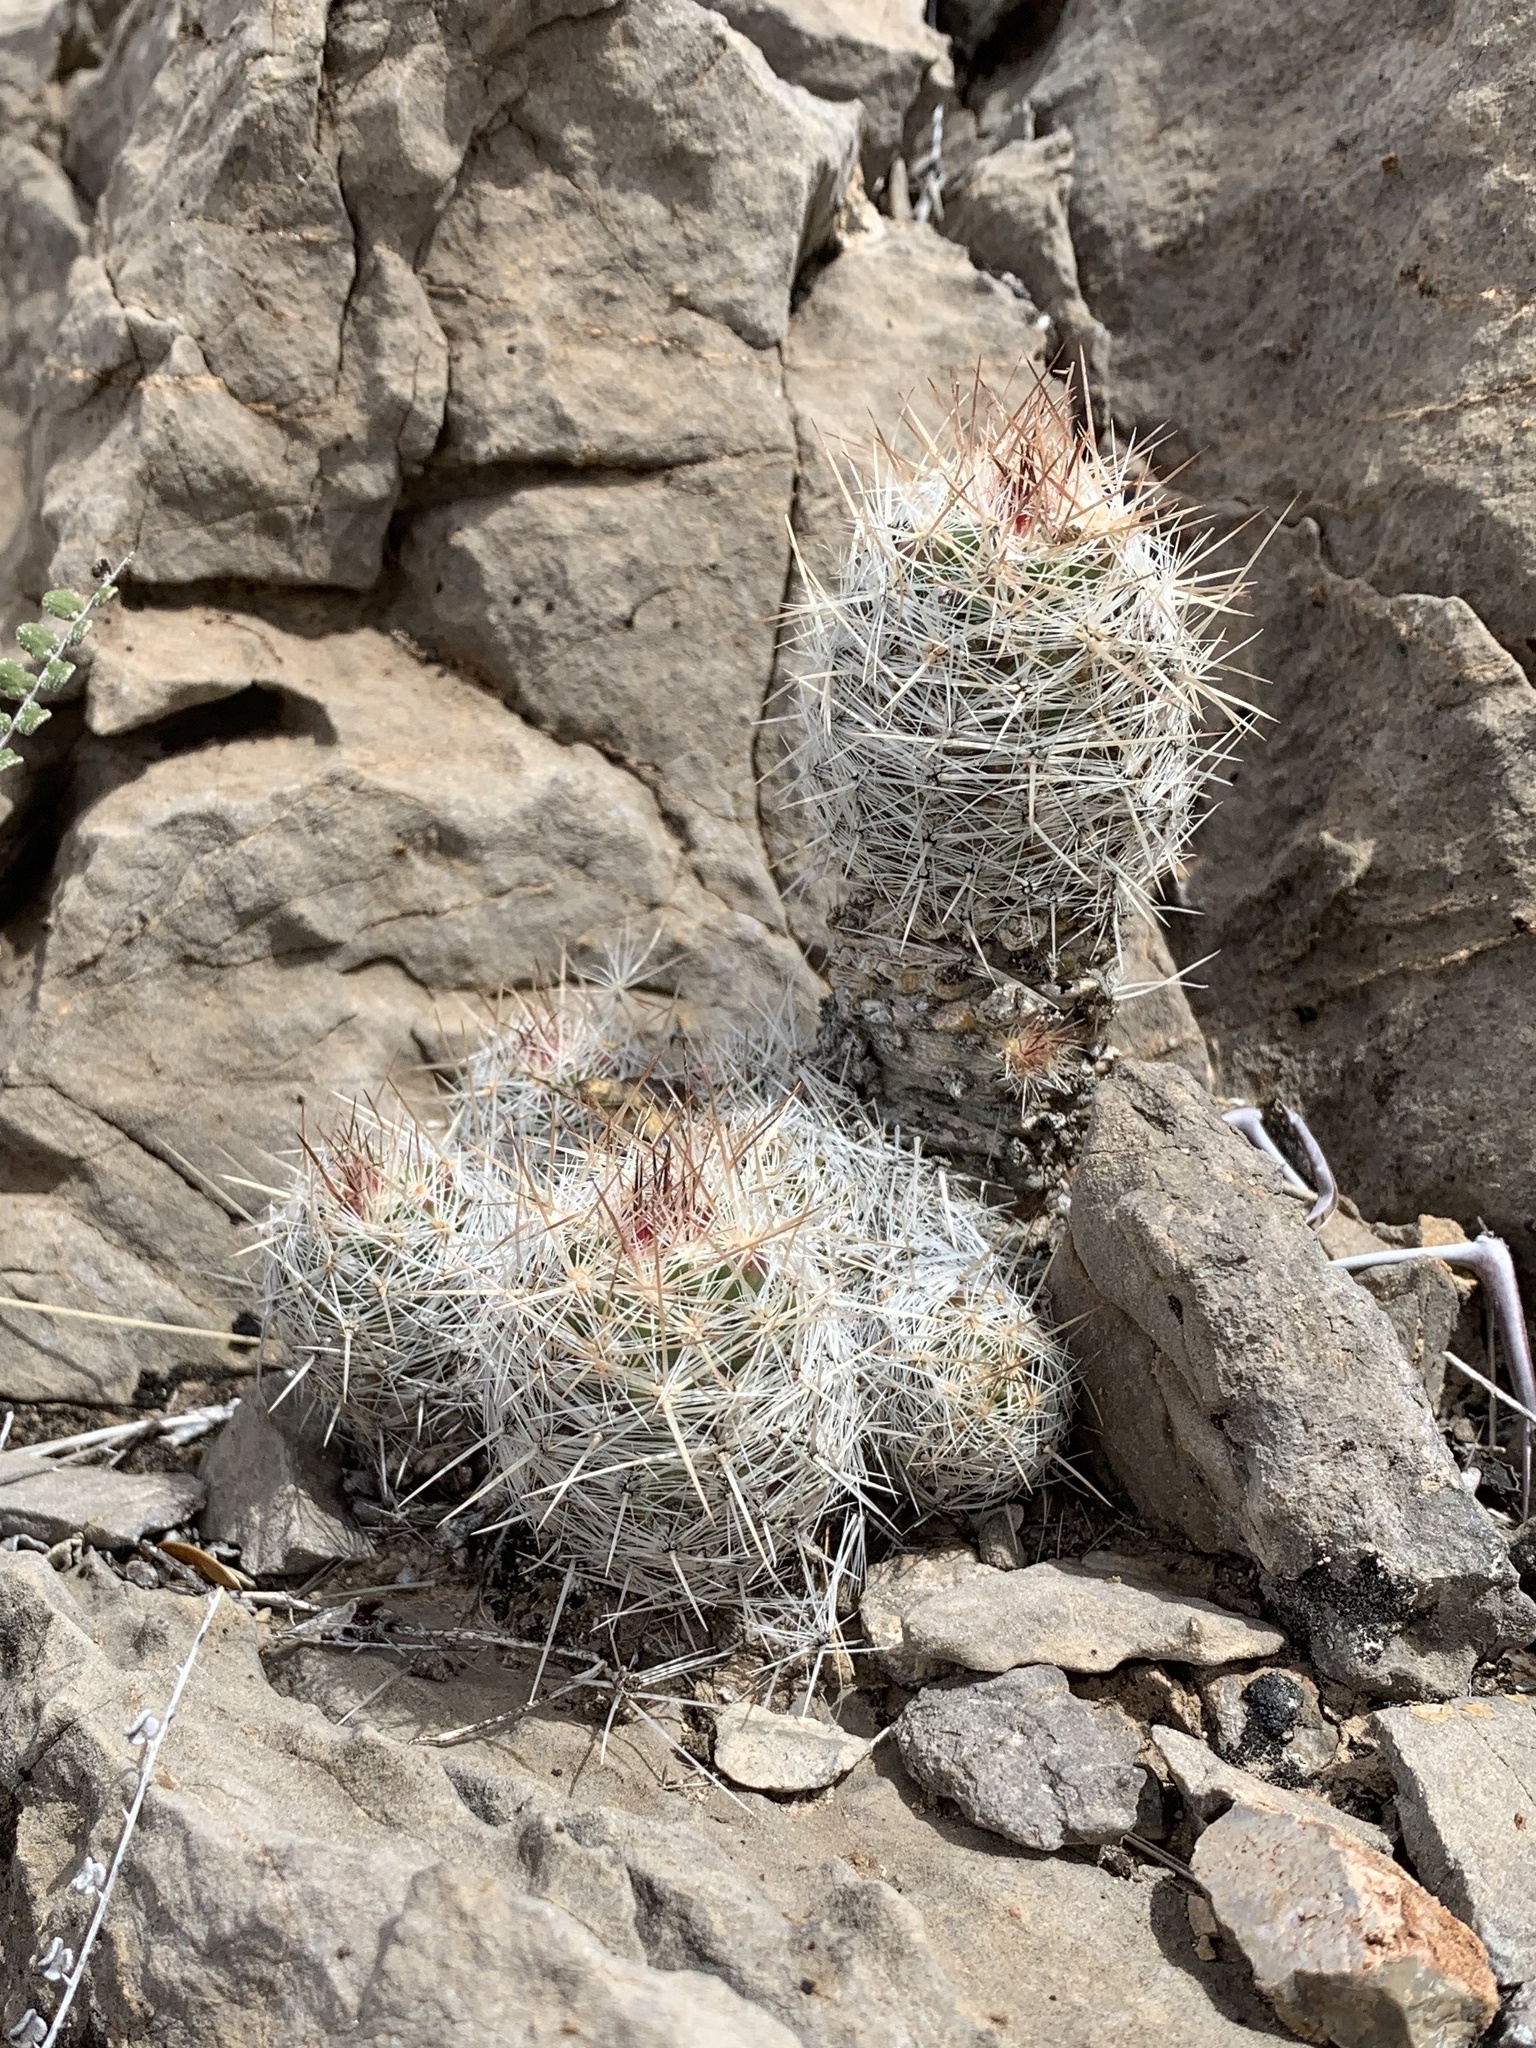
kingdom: Plantae
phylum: Tracheophyta
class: Magnoliopsida
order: Caryophyllales
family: Cactaceae
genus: Pelecyphora
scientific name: Pelecyphora tuberculosa
